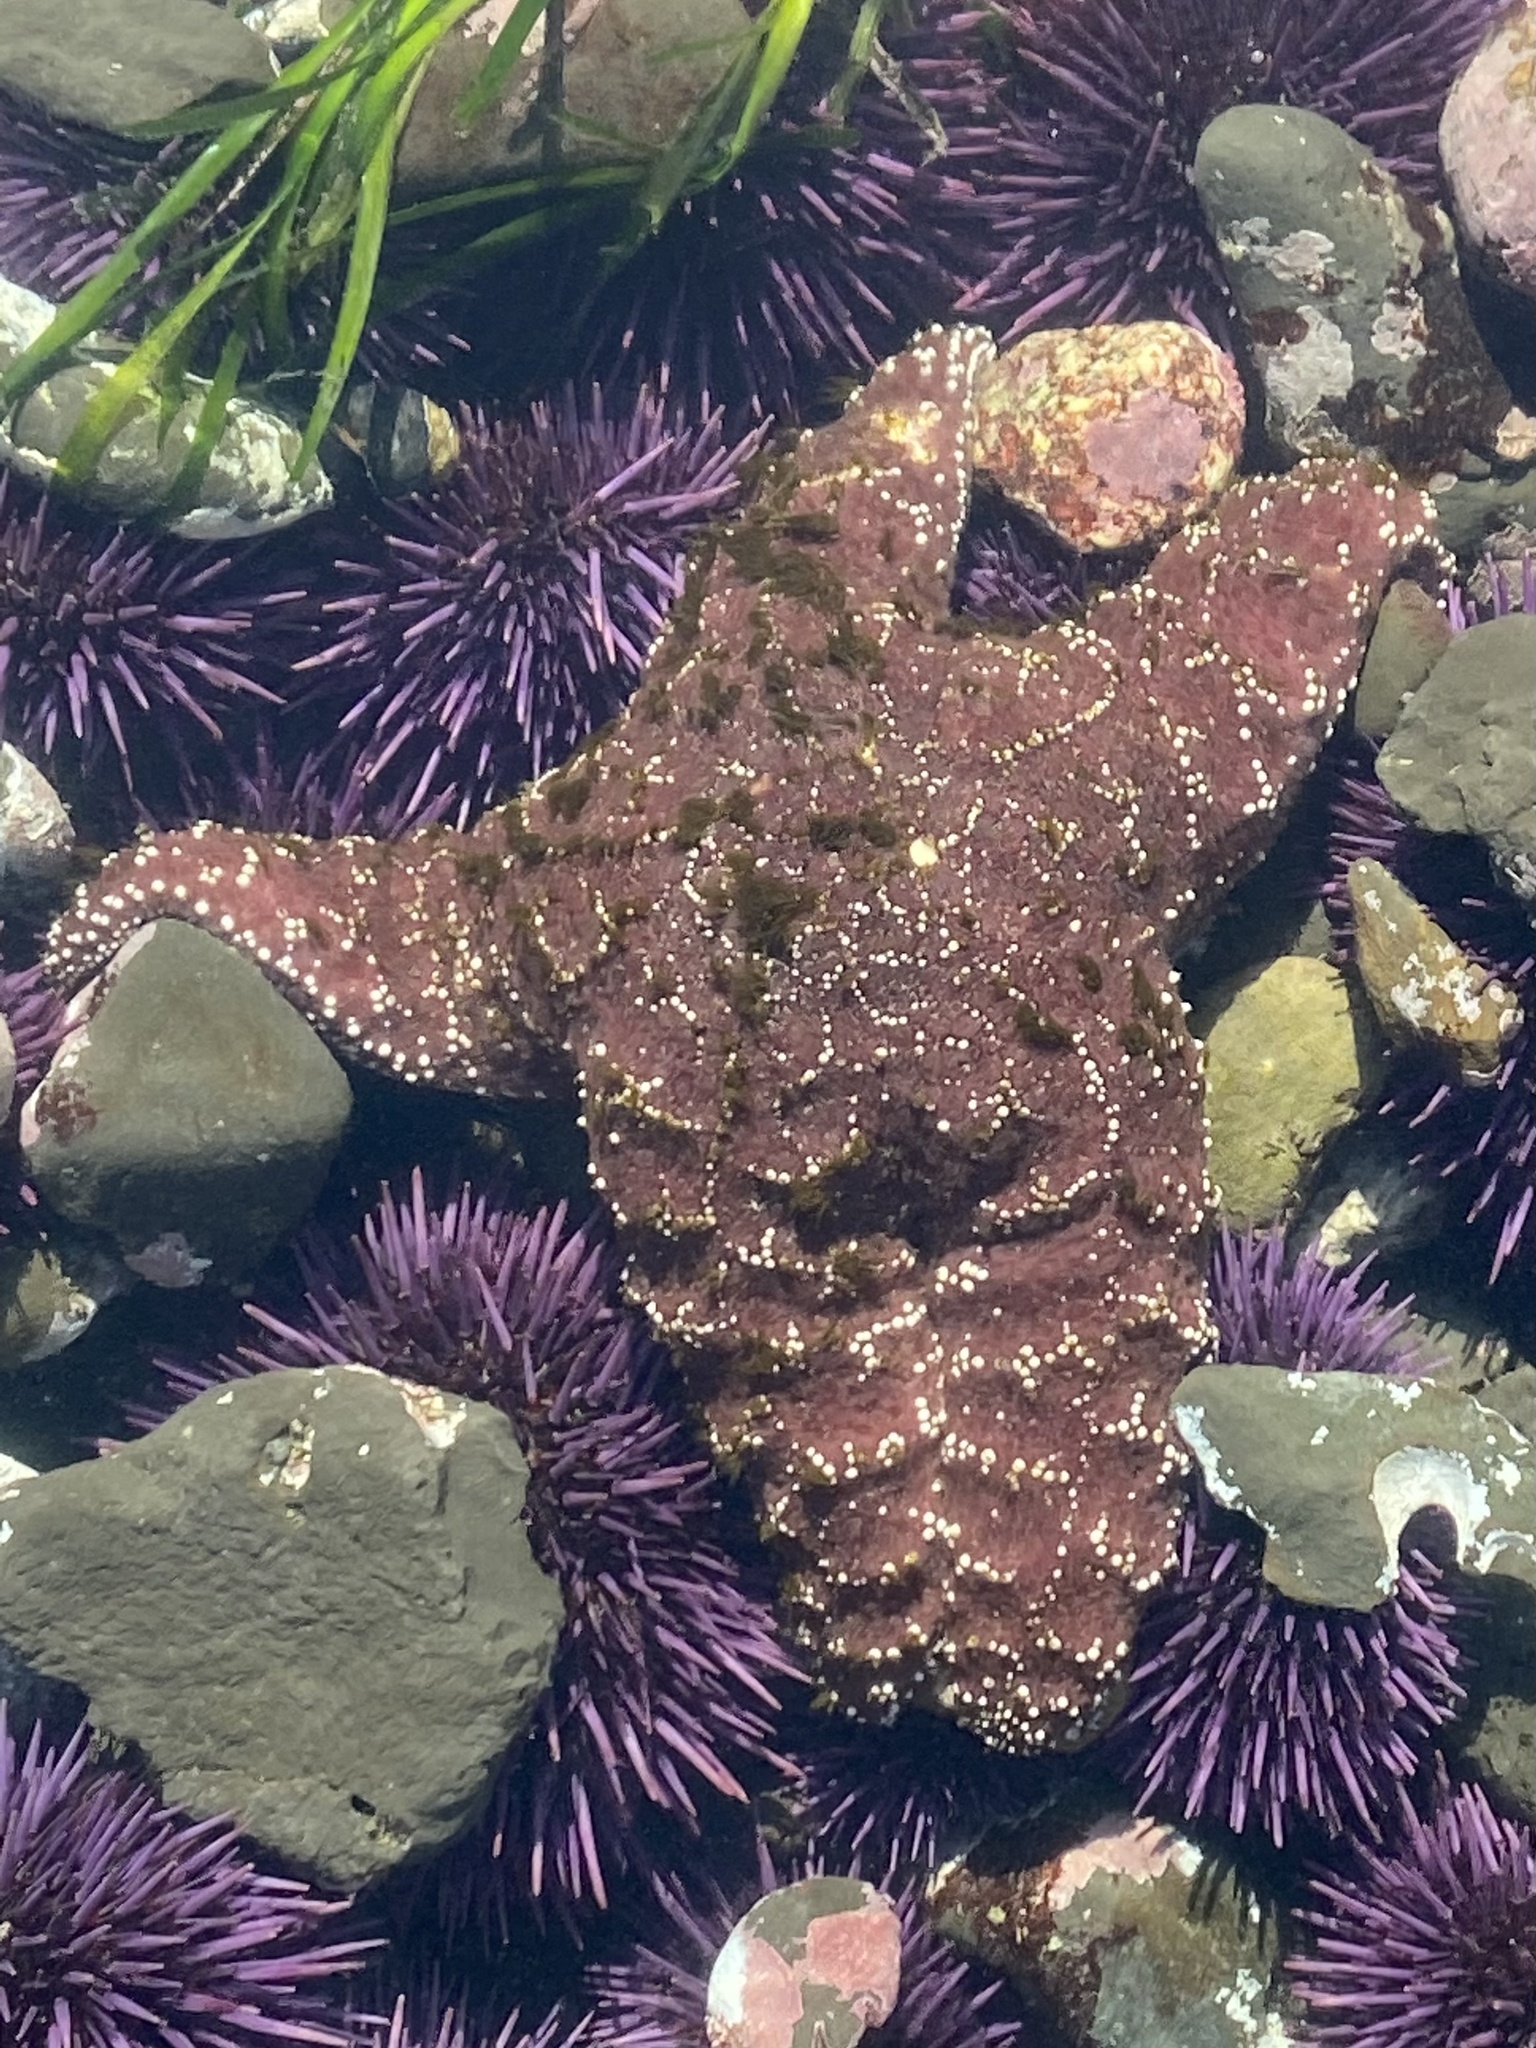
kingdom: Animalia
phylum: Echinodermata
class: Asteroidea
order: Forcipulatida
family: Asteriidae
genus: Pisaster
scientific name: Pisaster ochraceus
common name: Ochre stars
